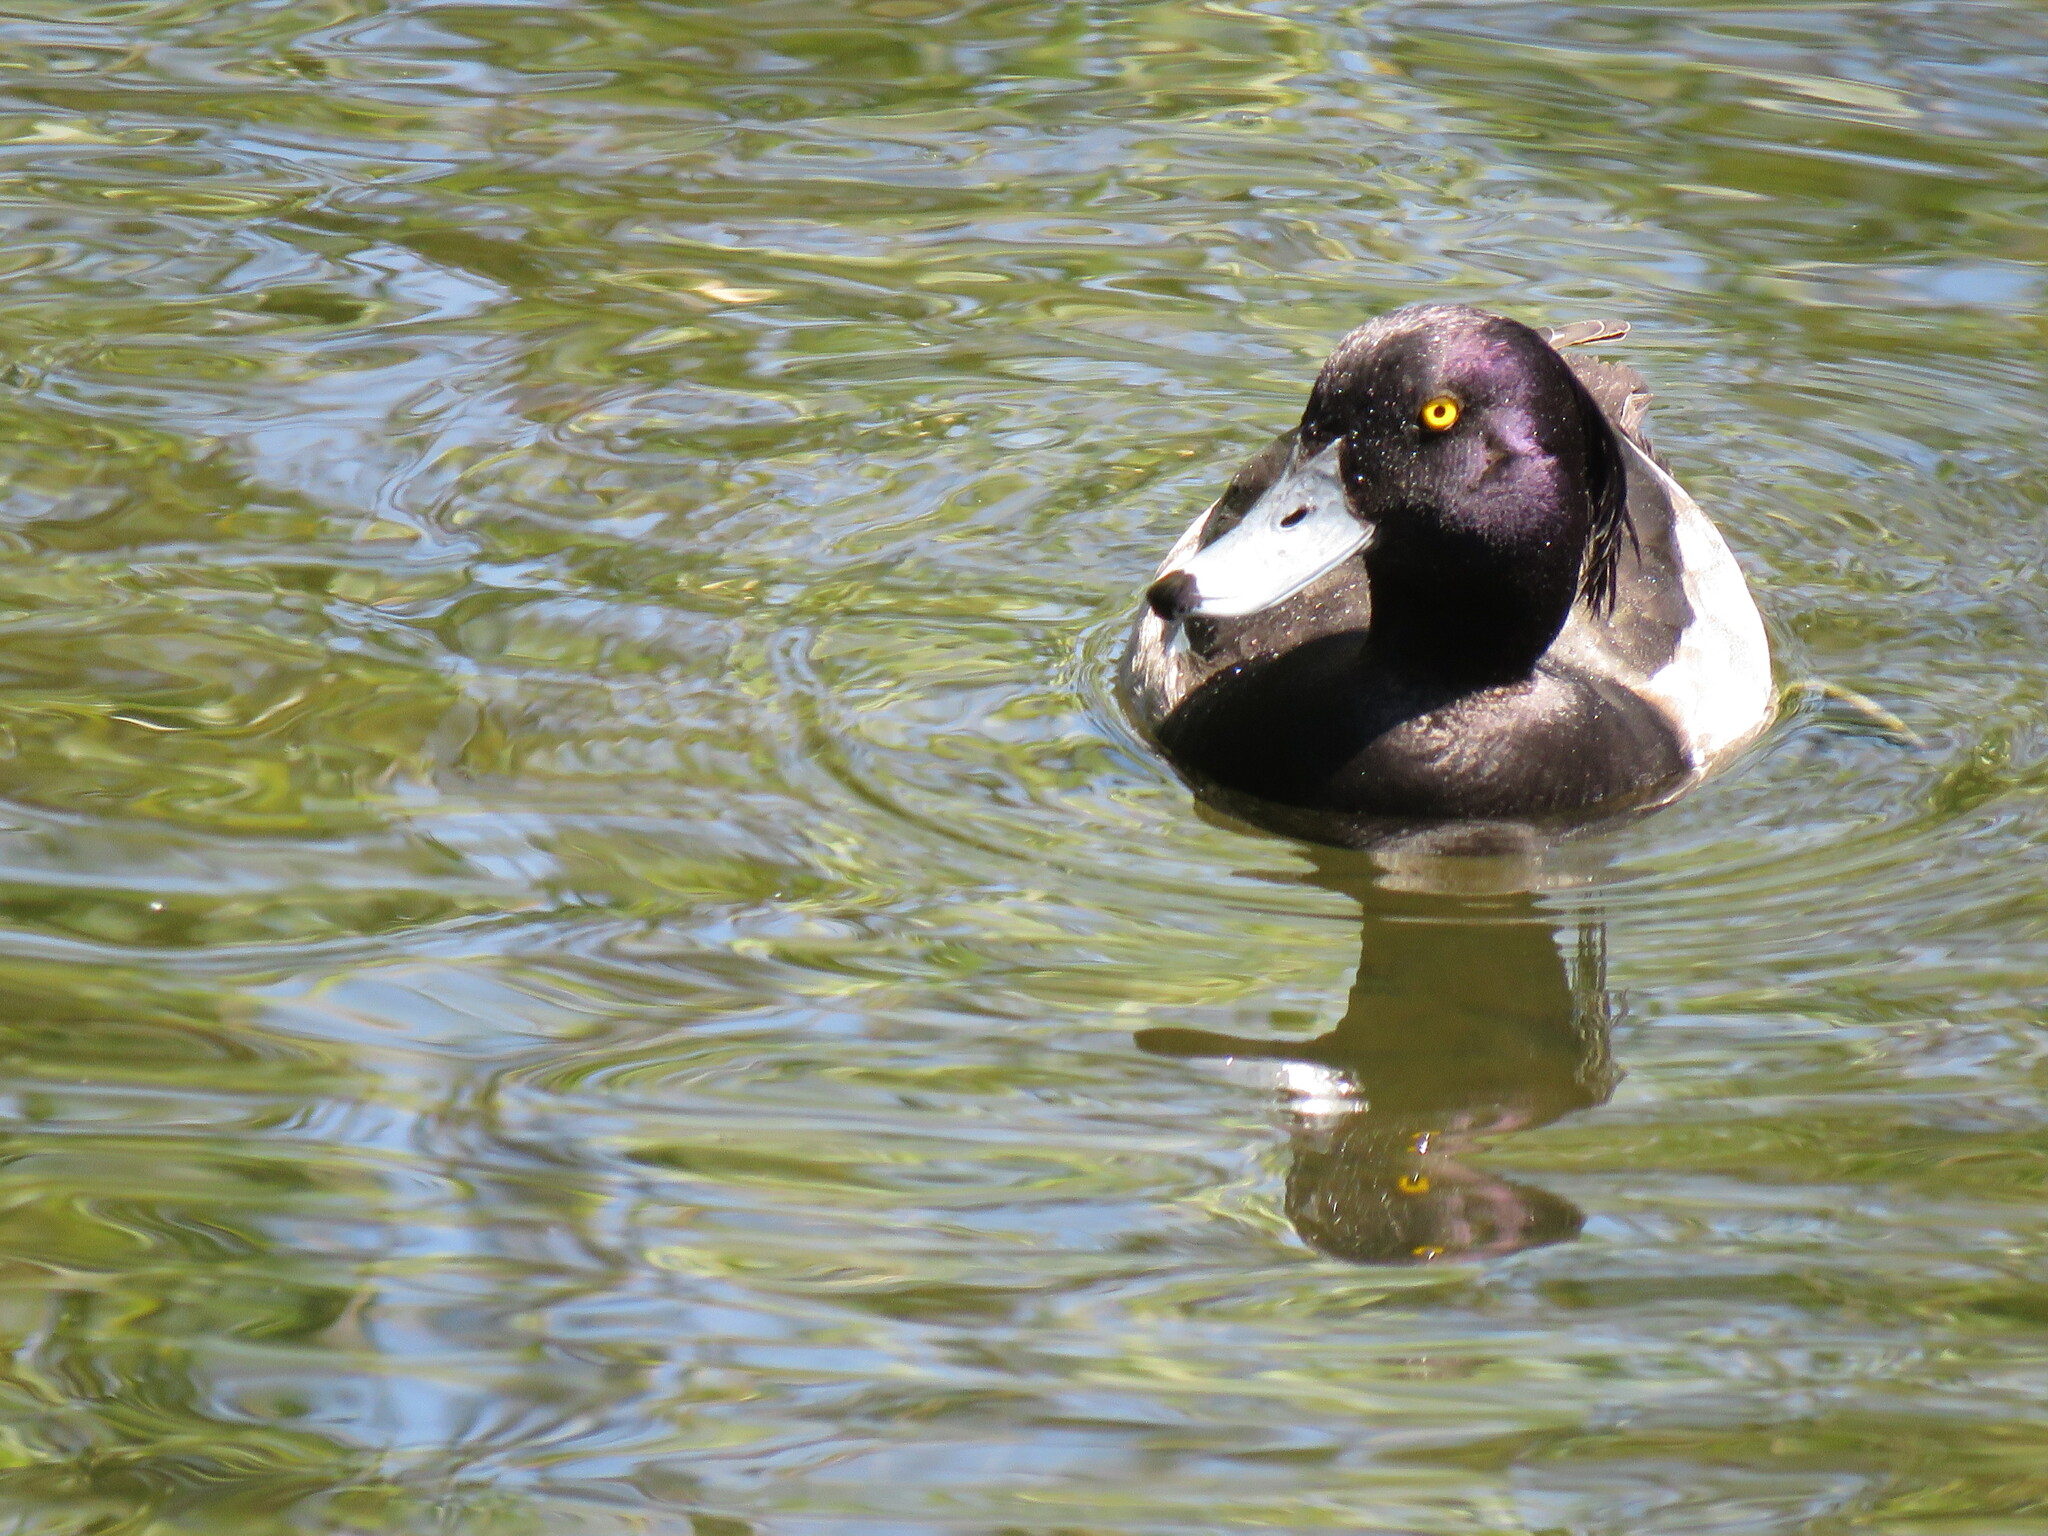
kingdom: Animalia
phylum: Chordata
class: Aves
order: Anseriformes
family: Anatidae
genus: Aythya
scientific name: Aythya fuligula
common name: Tufted duck
